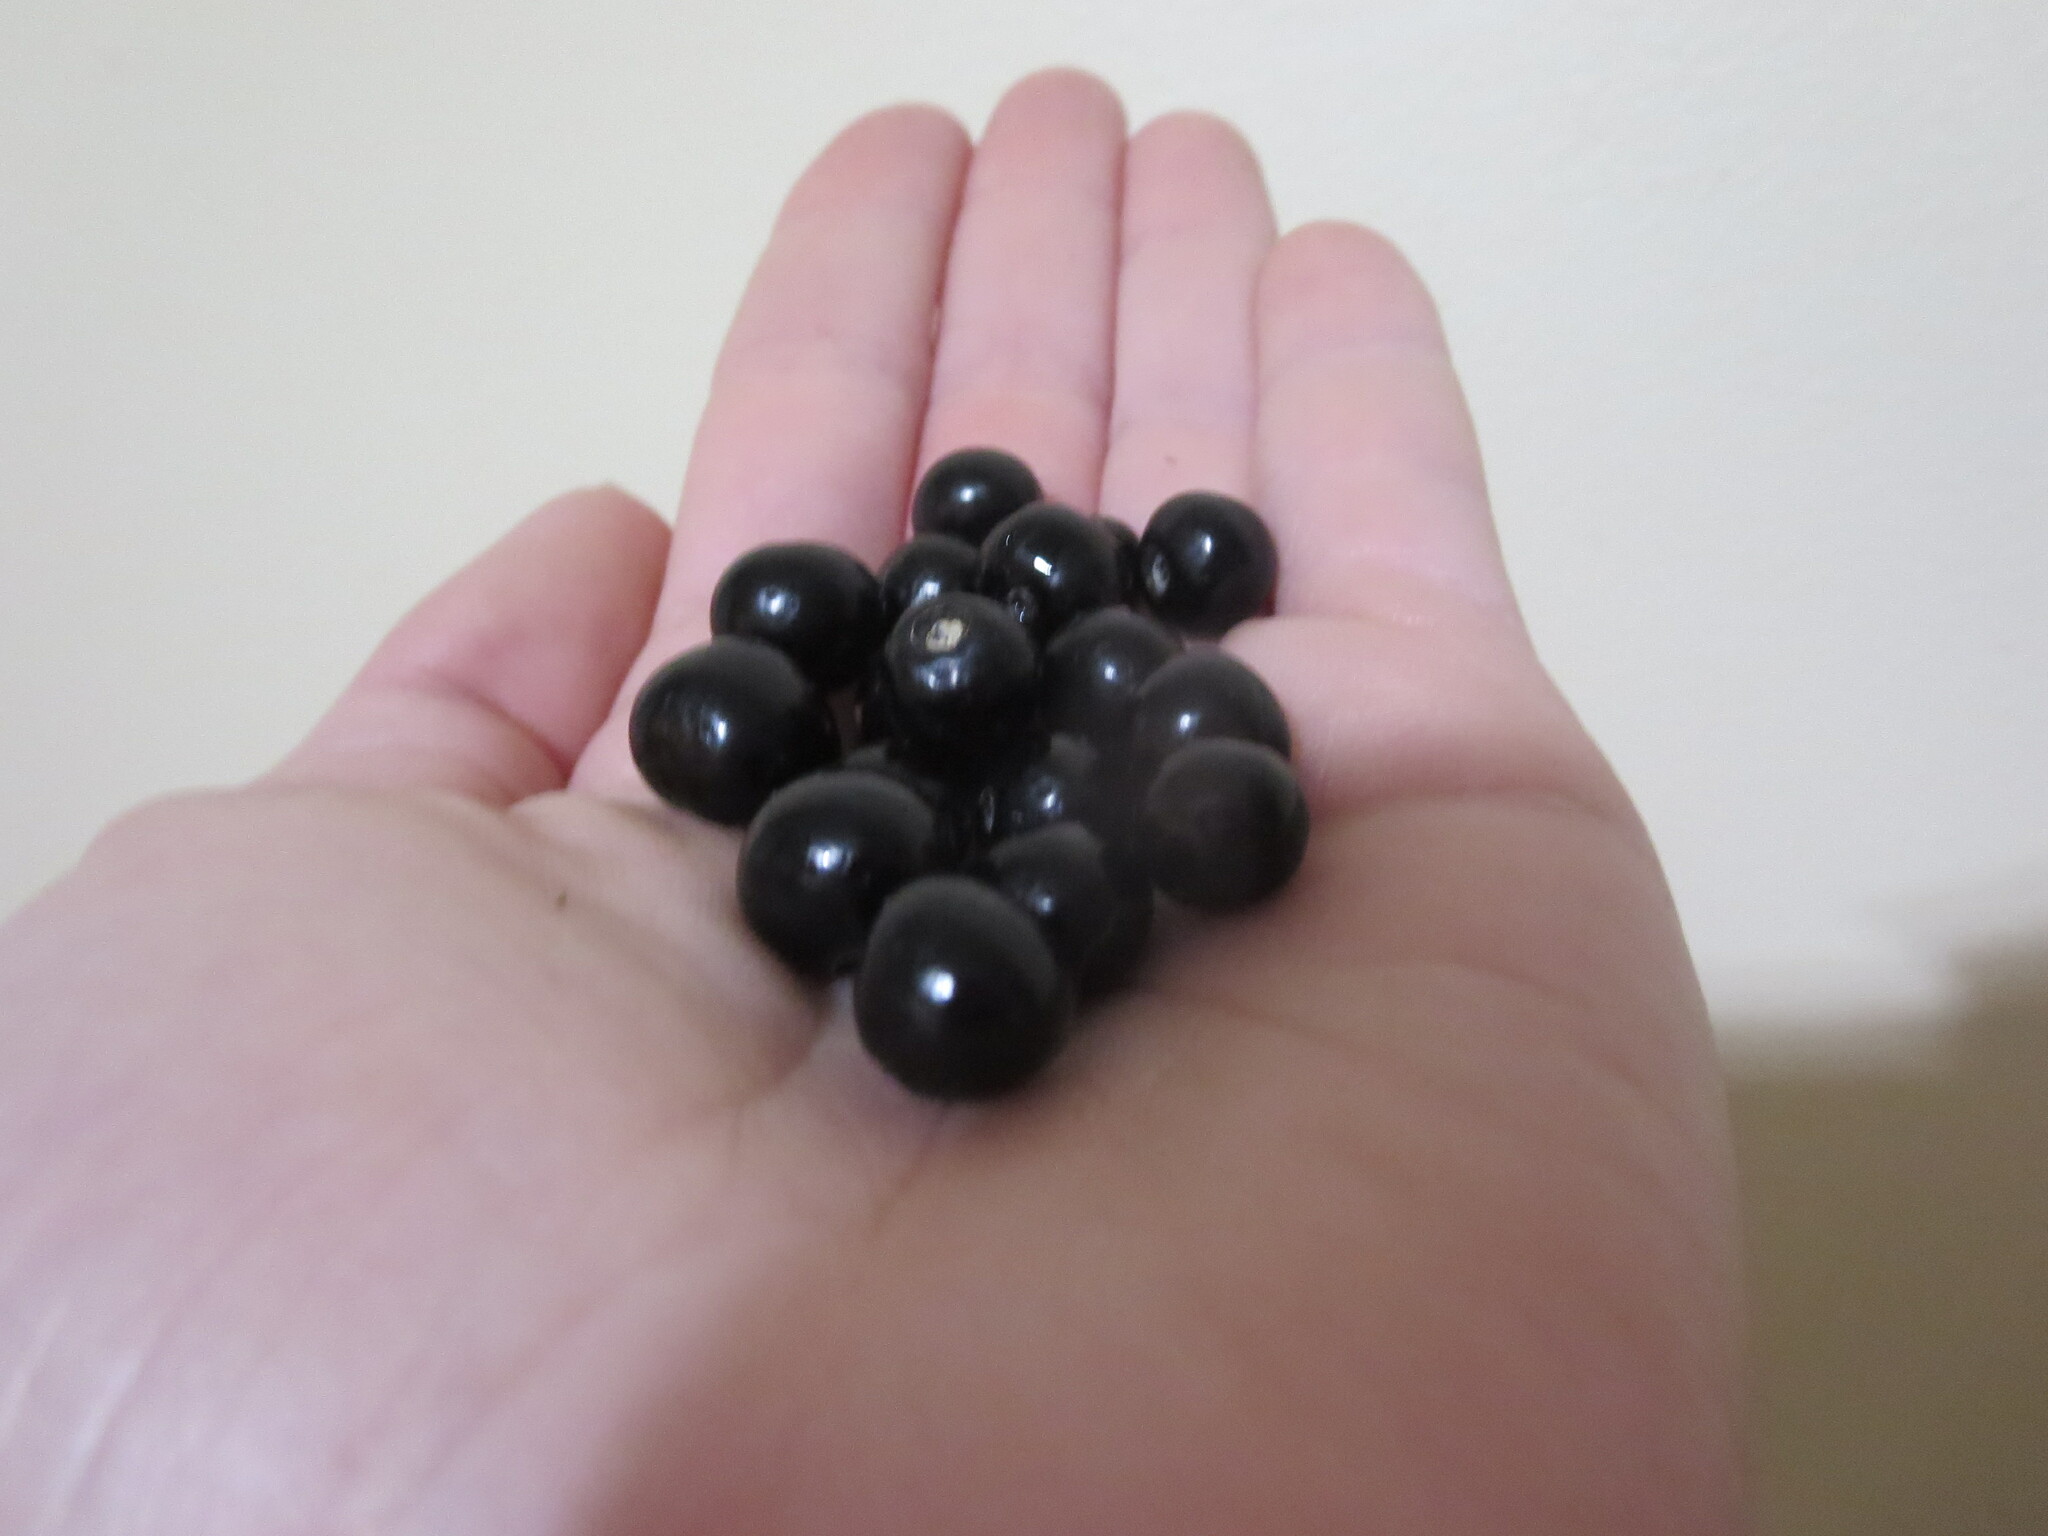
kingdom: Plantae
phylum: Tracheophyta
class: Magnoliopsida
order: Vitales
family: Vitaceae
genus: Nekemias
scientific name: Nekemias arborea
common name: Peppervine
